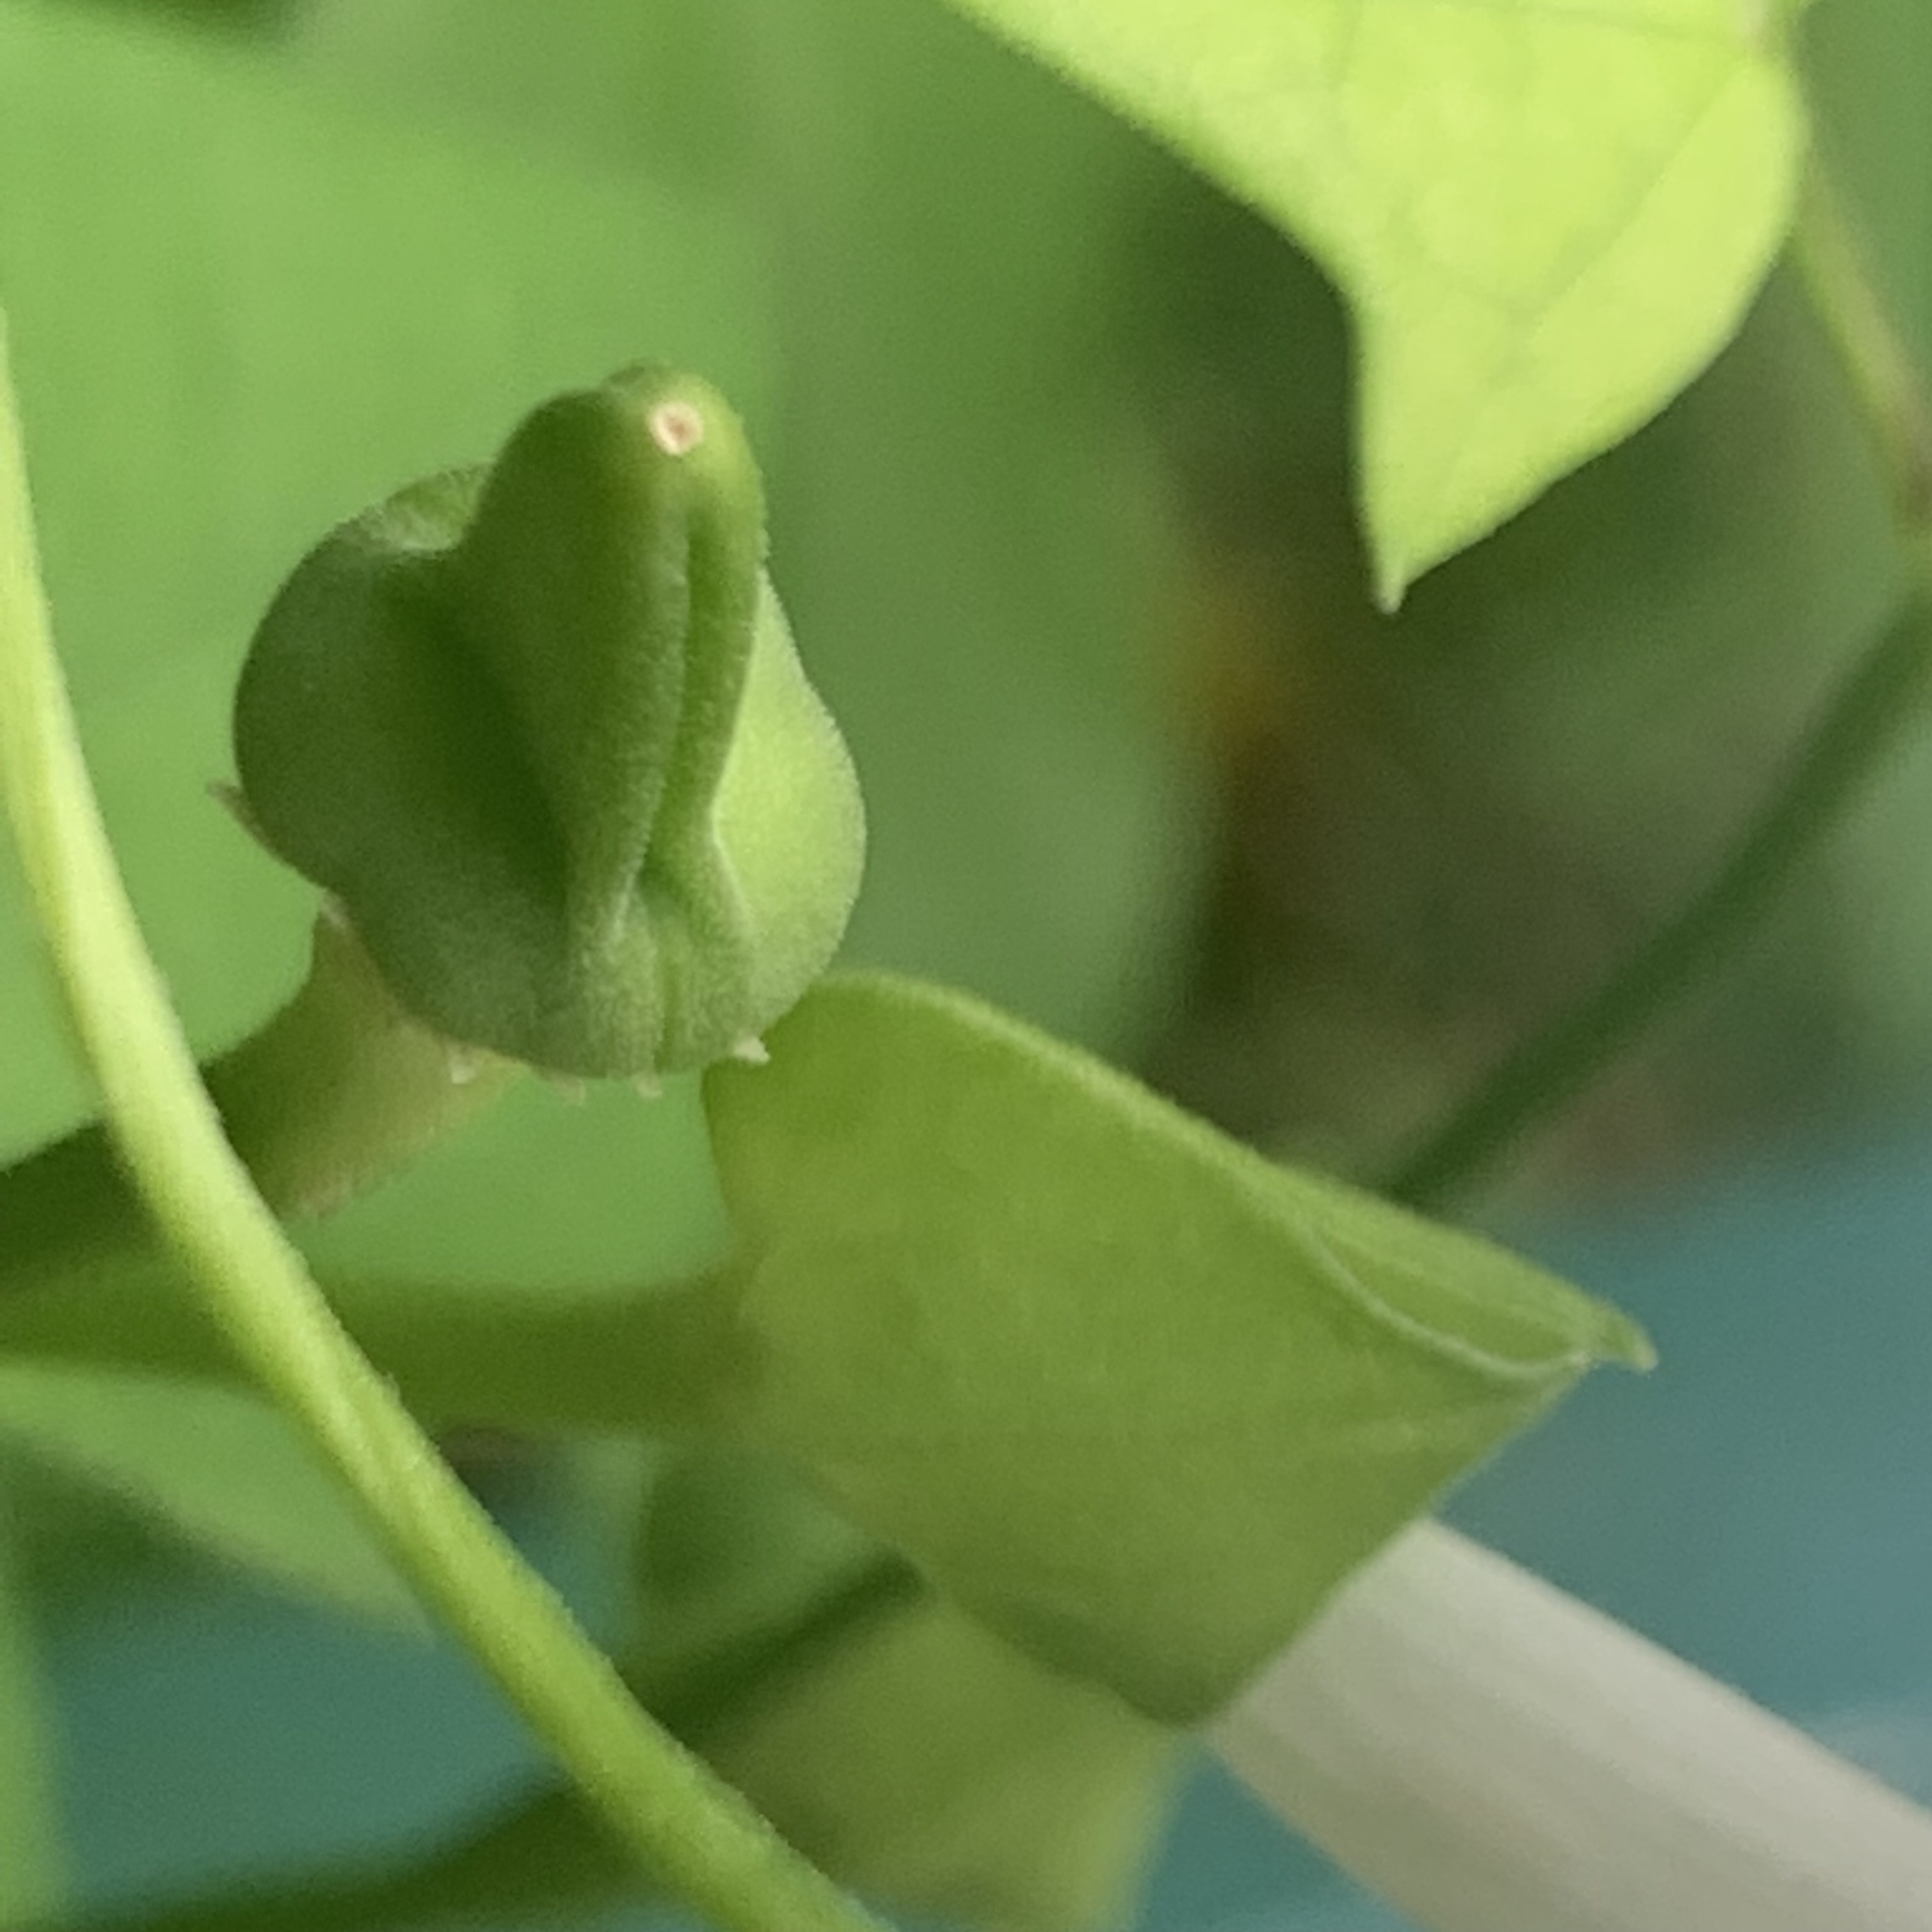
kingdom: Plantae
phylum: Tracheophyta
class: Magnoliopsida
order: Lamiales
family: Acanthaceae
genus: Thunbergia
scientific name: Thunbergia fragrans
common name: Whitelady
